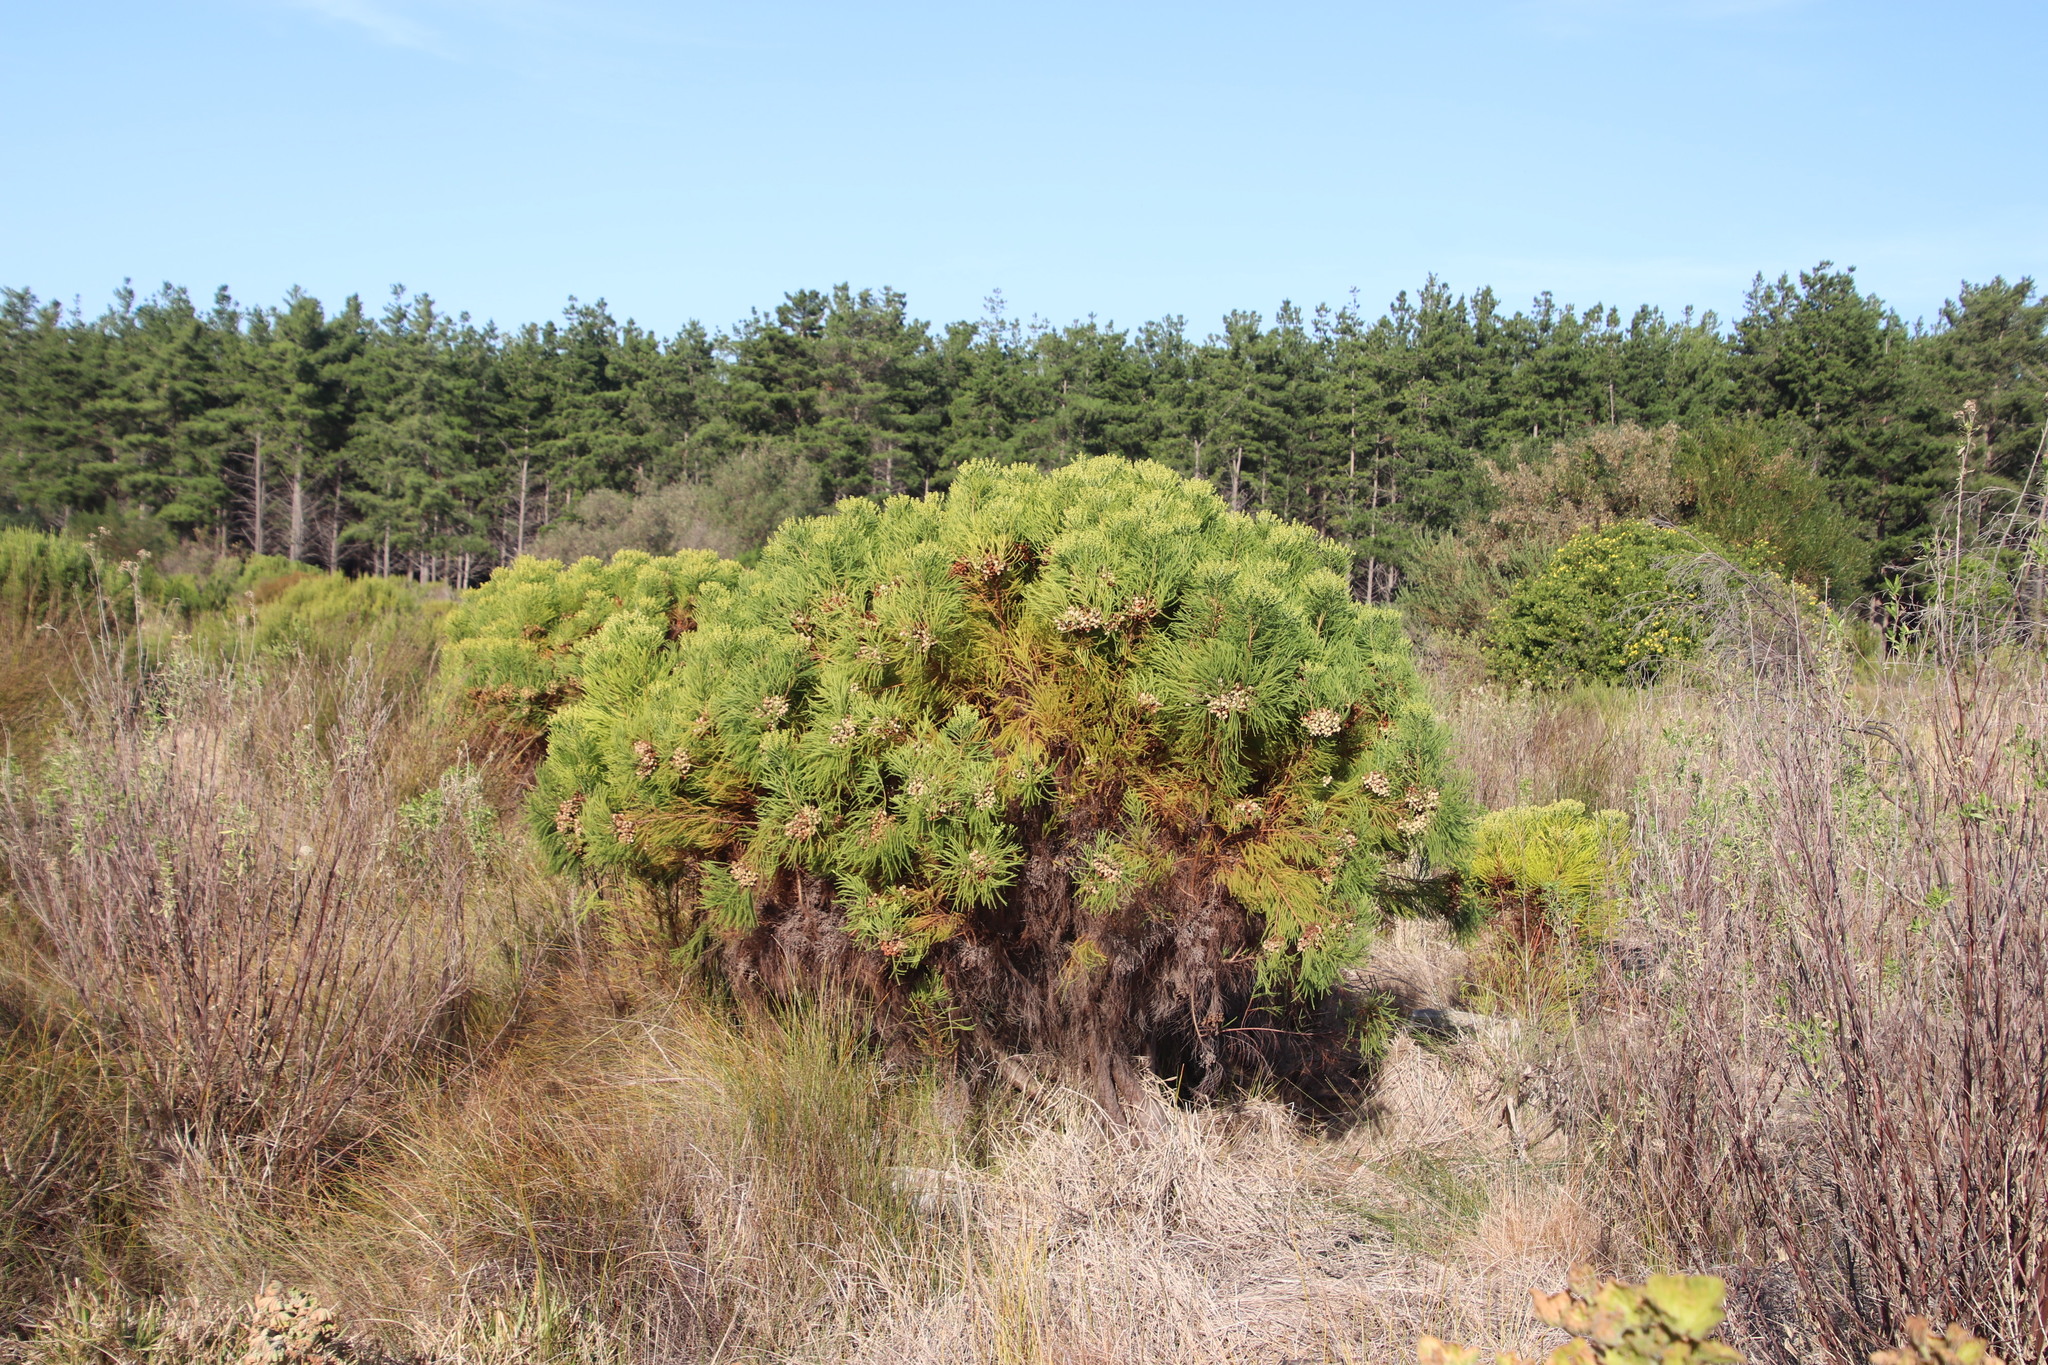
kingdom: Plantae
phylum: Tracheophyta
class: Magnoliopsida
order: Bruniales
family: Bruniaceae
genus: Berzelia
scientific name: Berzelia lanuginosa
